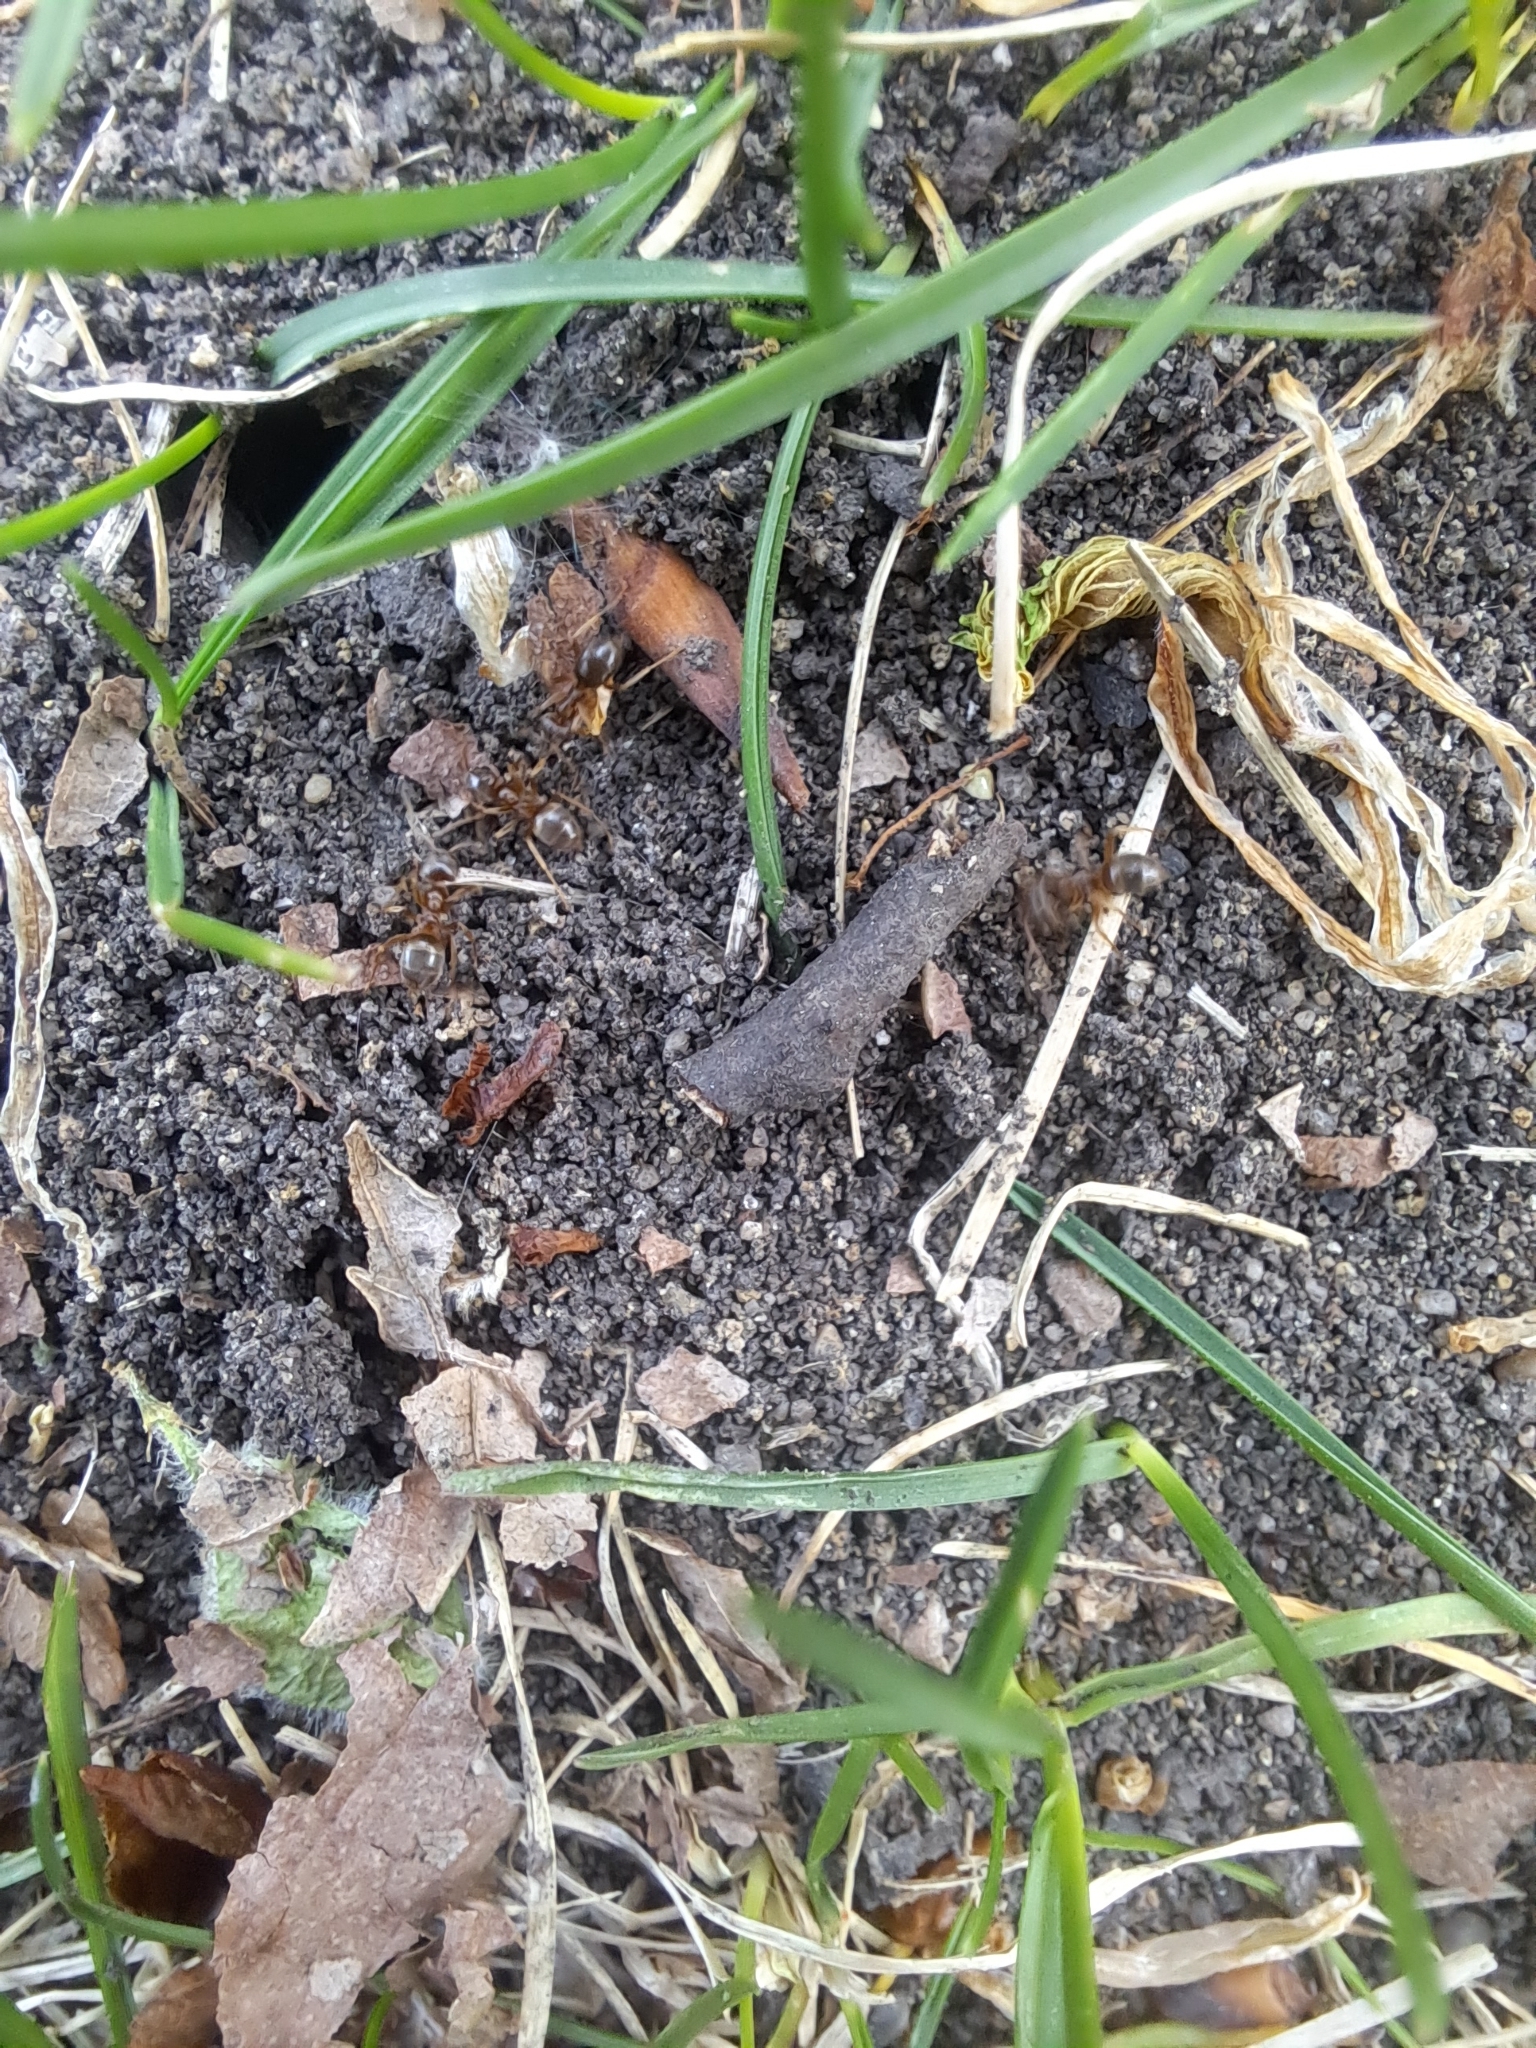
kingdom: Animalia
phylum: Arthropoda
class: Insecta
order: Hymenoptera
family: Formicidae
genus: Lasius
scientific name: Lasius neoniger
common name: Turfgrass ant
